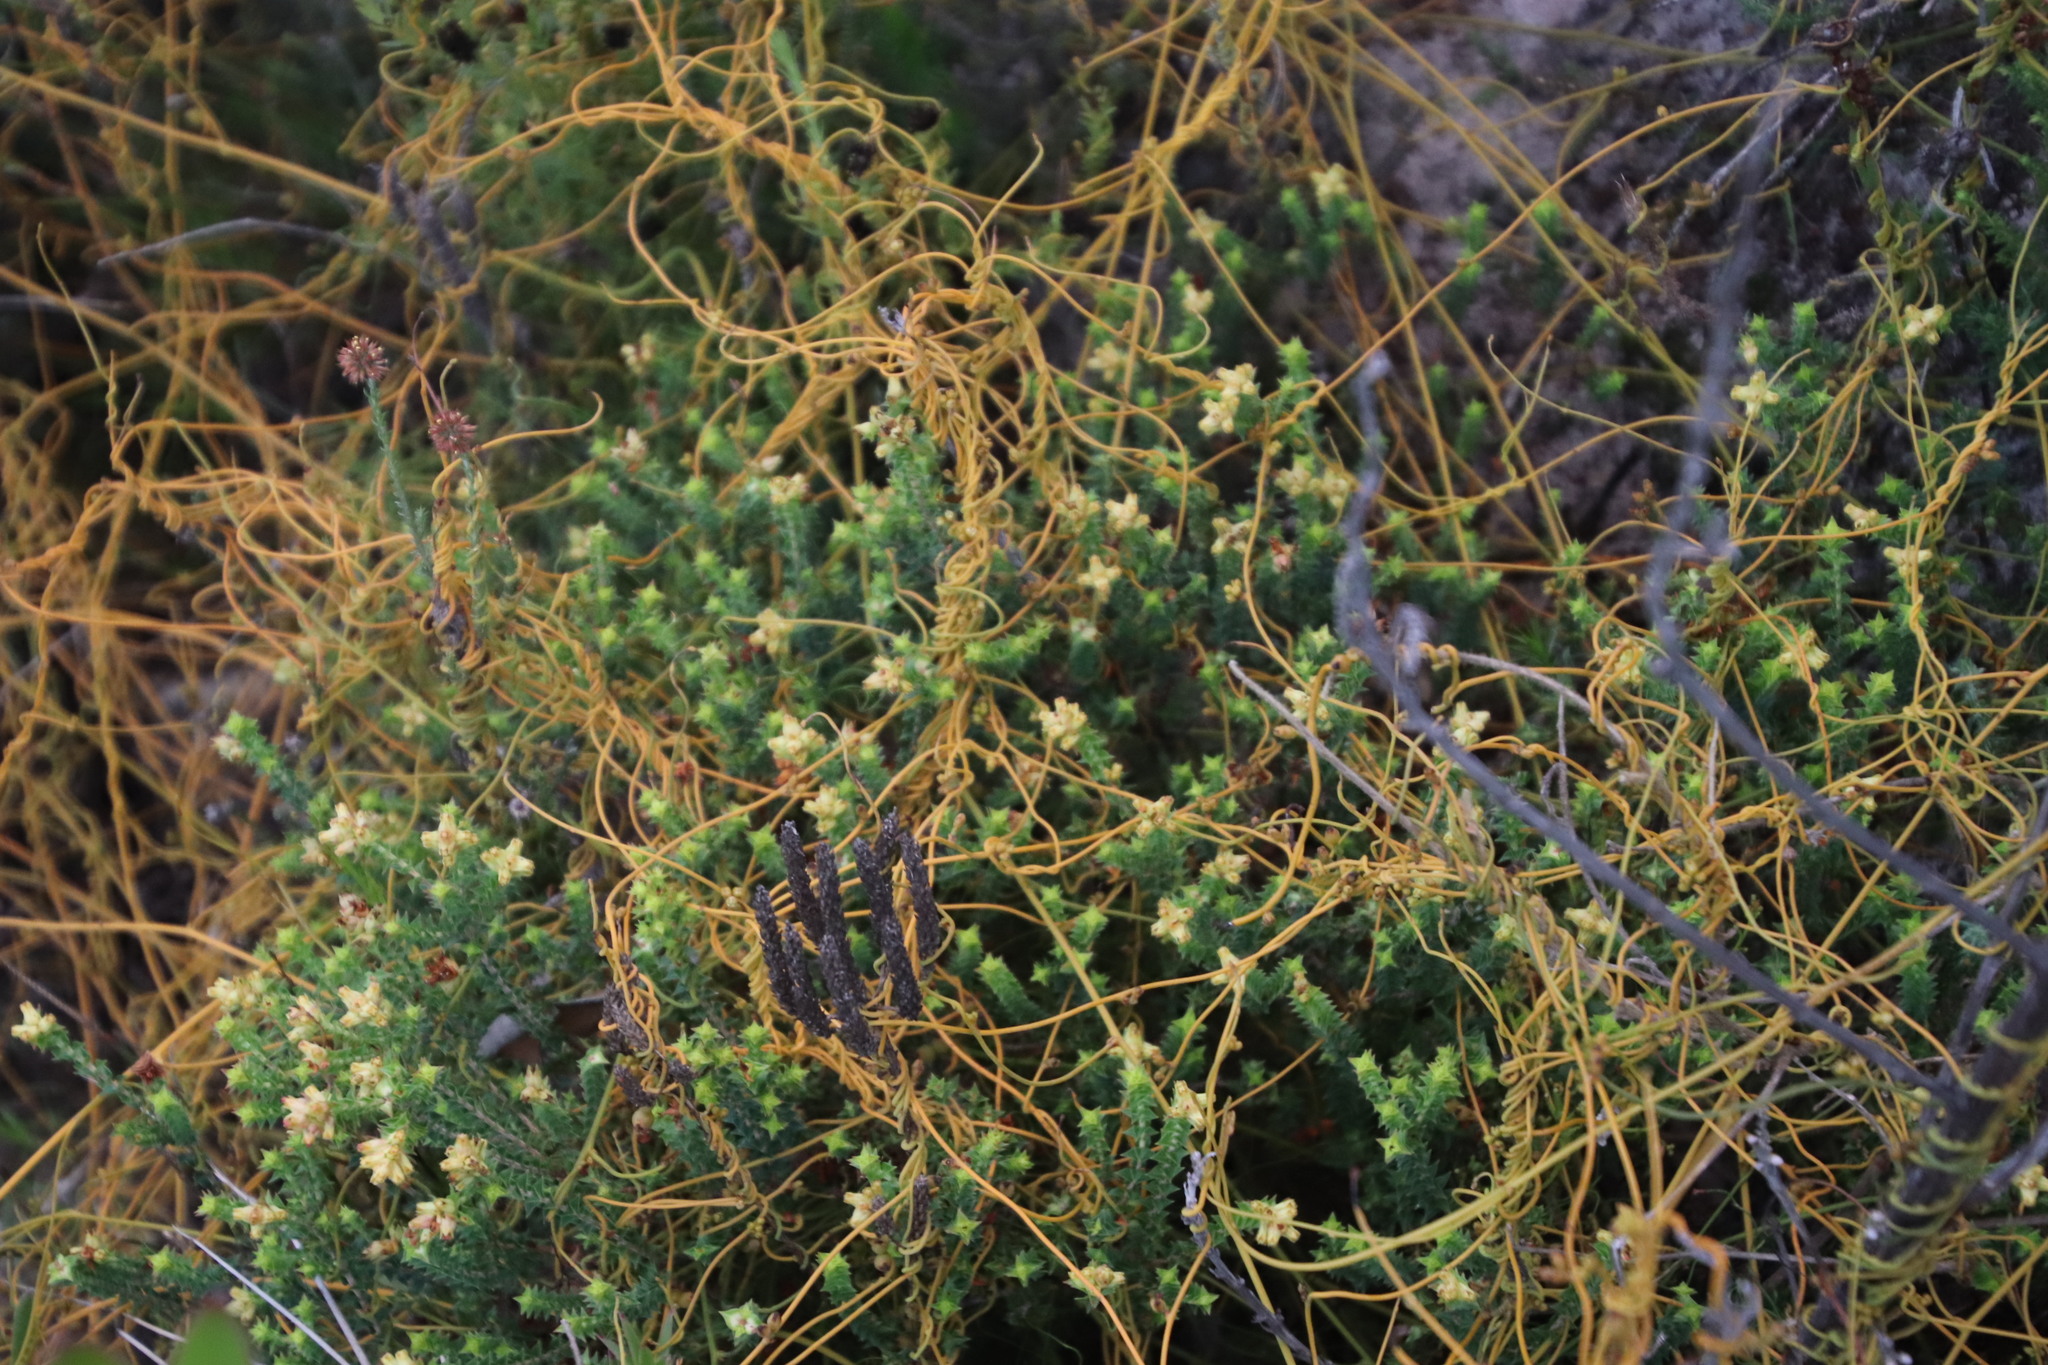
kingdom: Plantae
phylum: Tracheophyta
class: Magnoliopsida
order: Laurales
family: Lauraceae
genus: Cassytha
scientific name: Cassytha ciliolata
